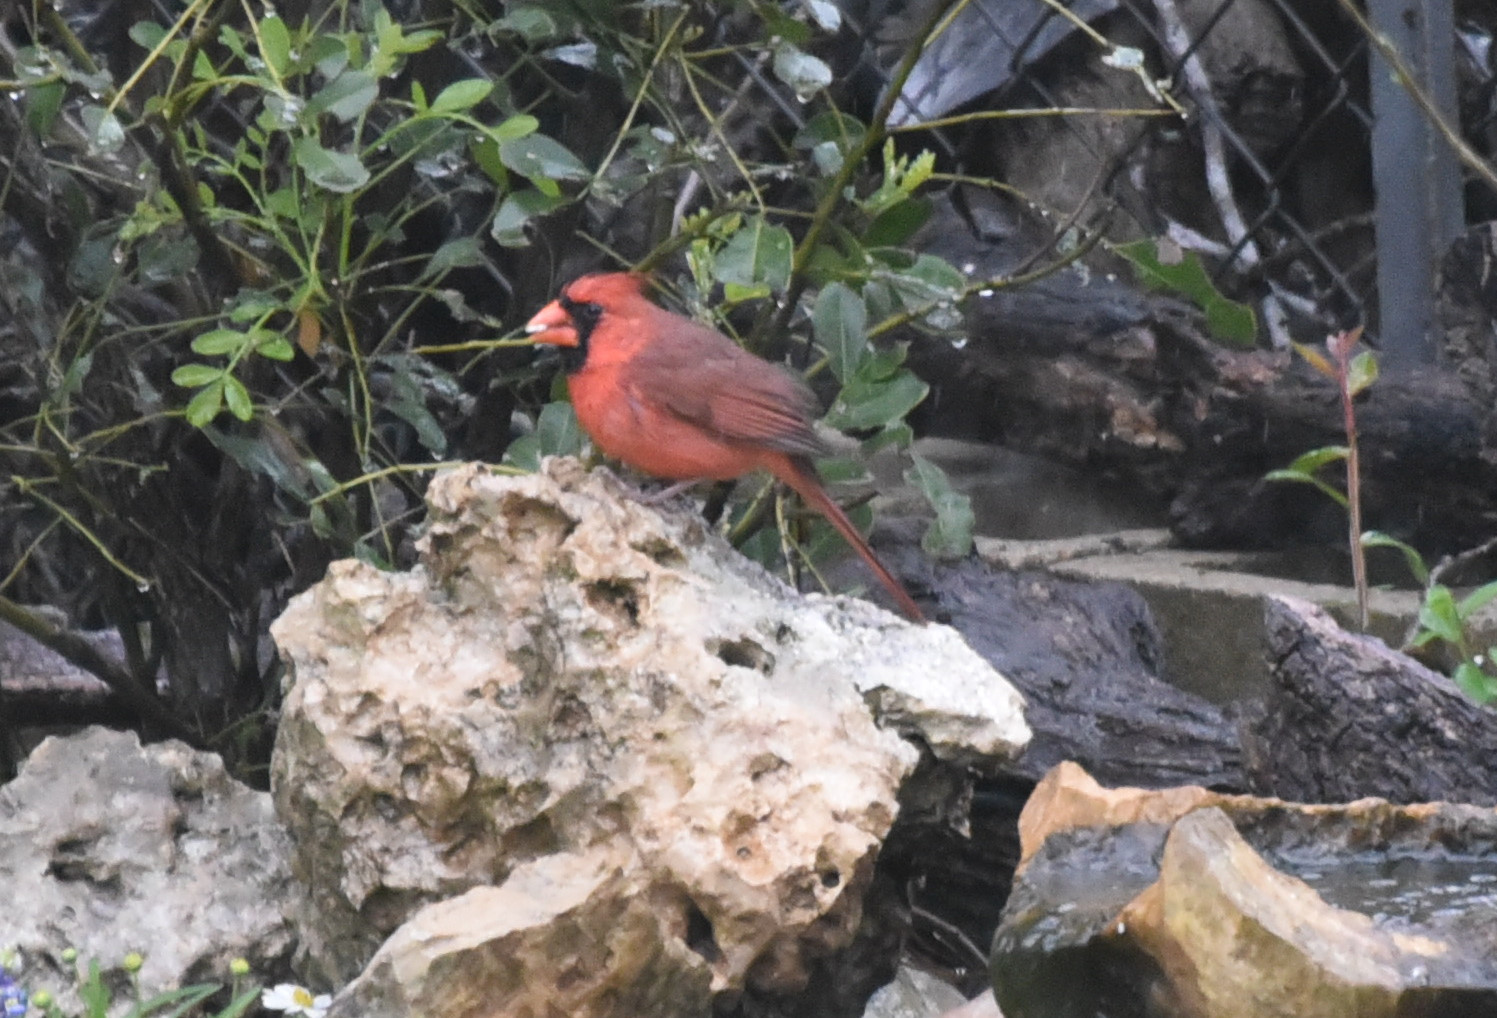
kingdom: Animalia
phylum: Chordata
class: Aves
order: Passeriformes
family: Cardinalidae
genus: Cardinalis
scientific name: Cardinalis cardinalis
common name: Northern cardinal
